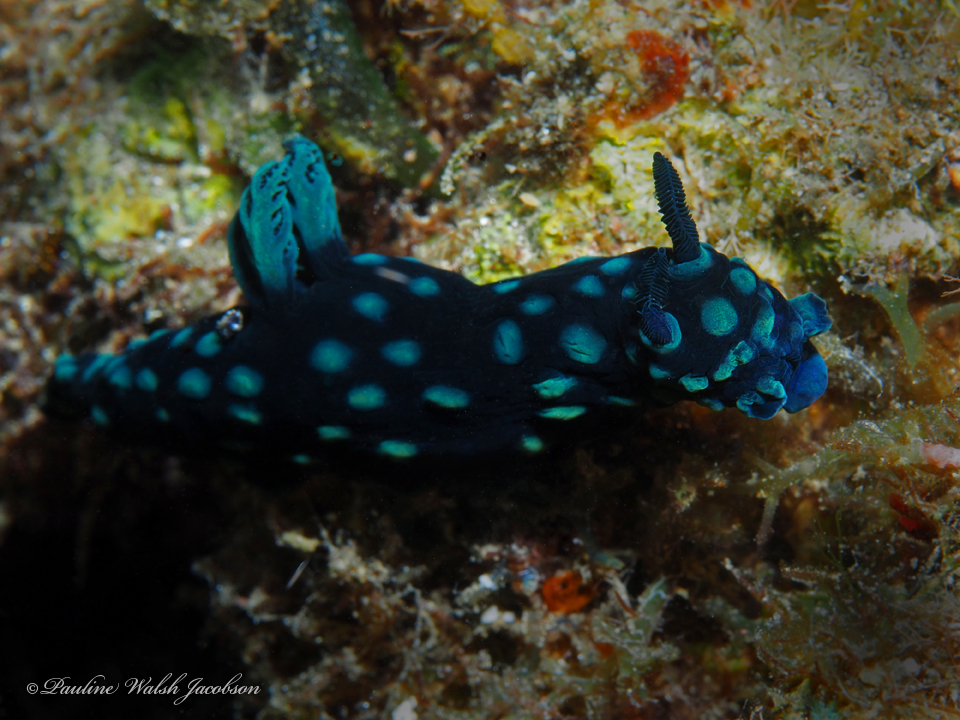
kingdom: Animalia
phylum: Mollusca
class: Gastropoda
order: Nudibranchia
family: Polyceridae
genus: Nembrotha
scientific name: Nembrotha cristata
